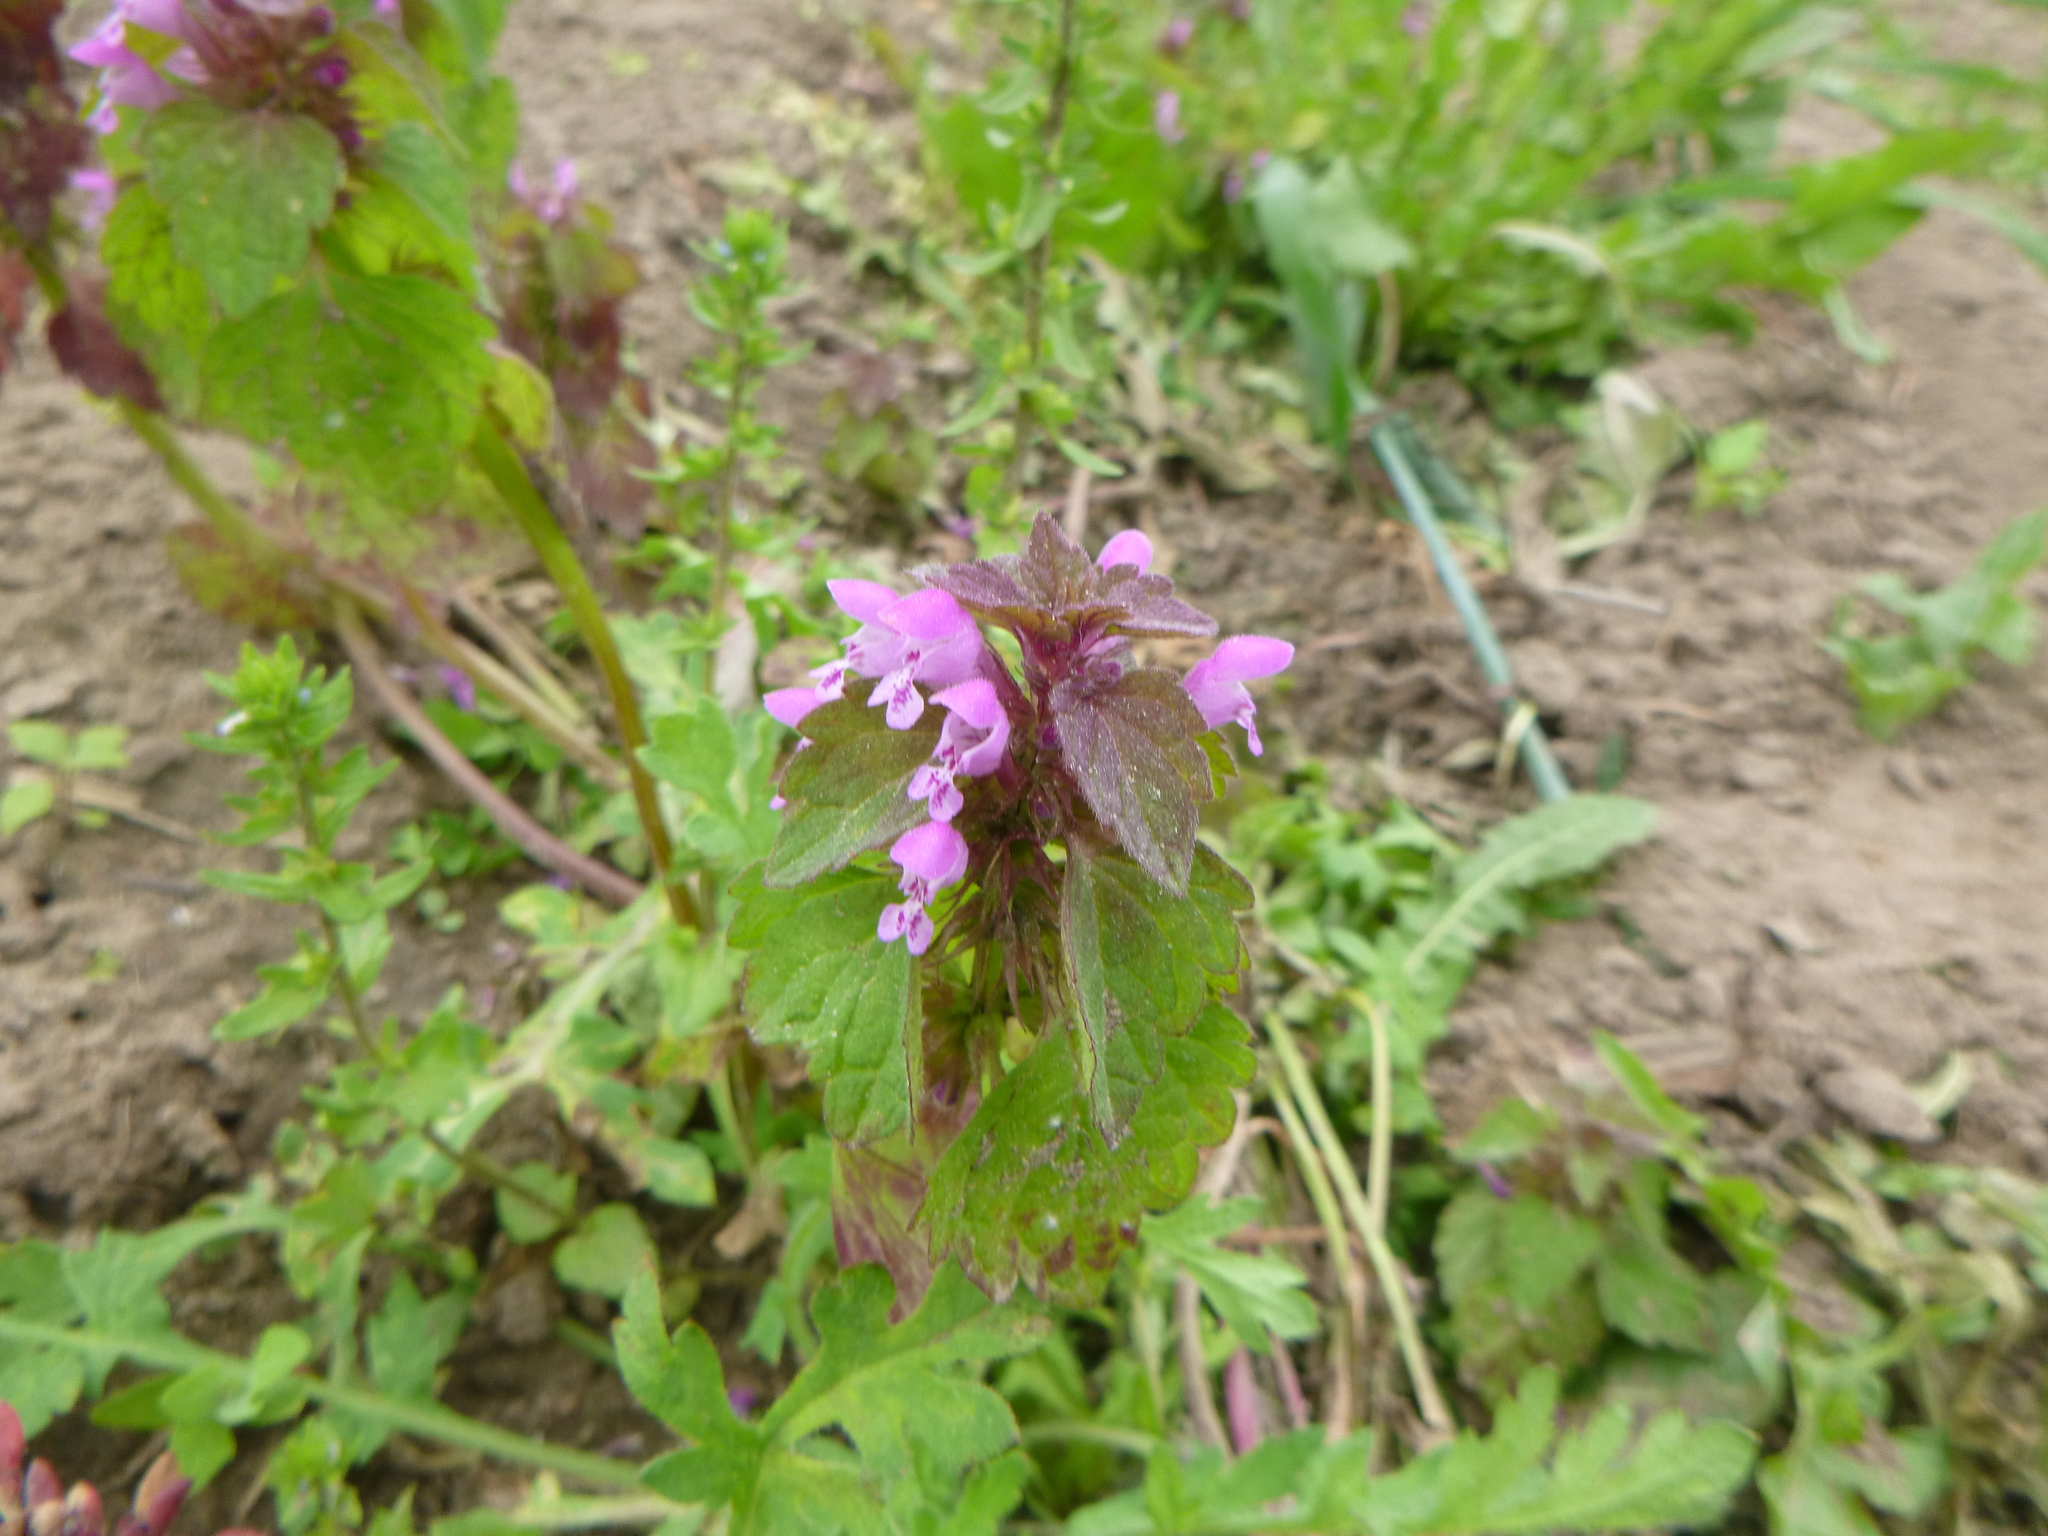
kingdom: Plantae
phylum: Tracheophyta
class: Magnoliopsida
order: Lamiales
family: Lamiaceae
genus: Lamium
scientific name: Lamium purpureum
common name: Red dead-nettle
